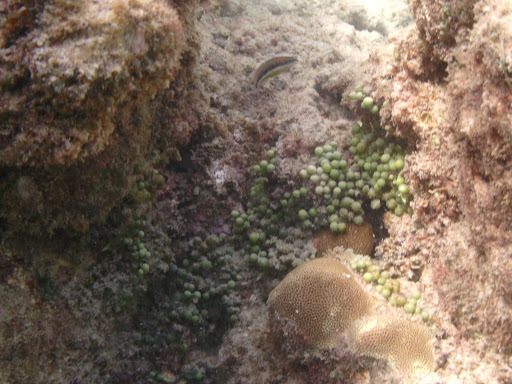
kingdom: Animalia
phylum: Chordata
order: Perciformes
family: Labridae
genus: Thalassoma
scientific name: Thalassoma duperrey
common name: Saddle wrasse
